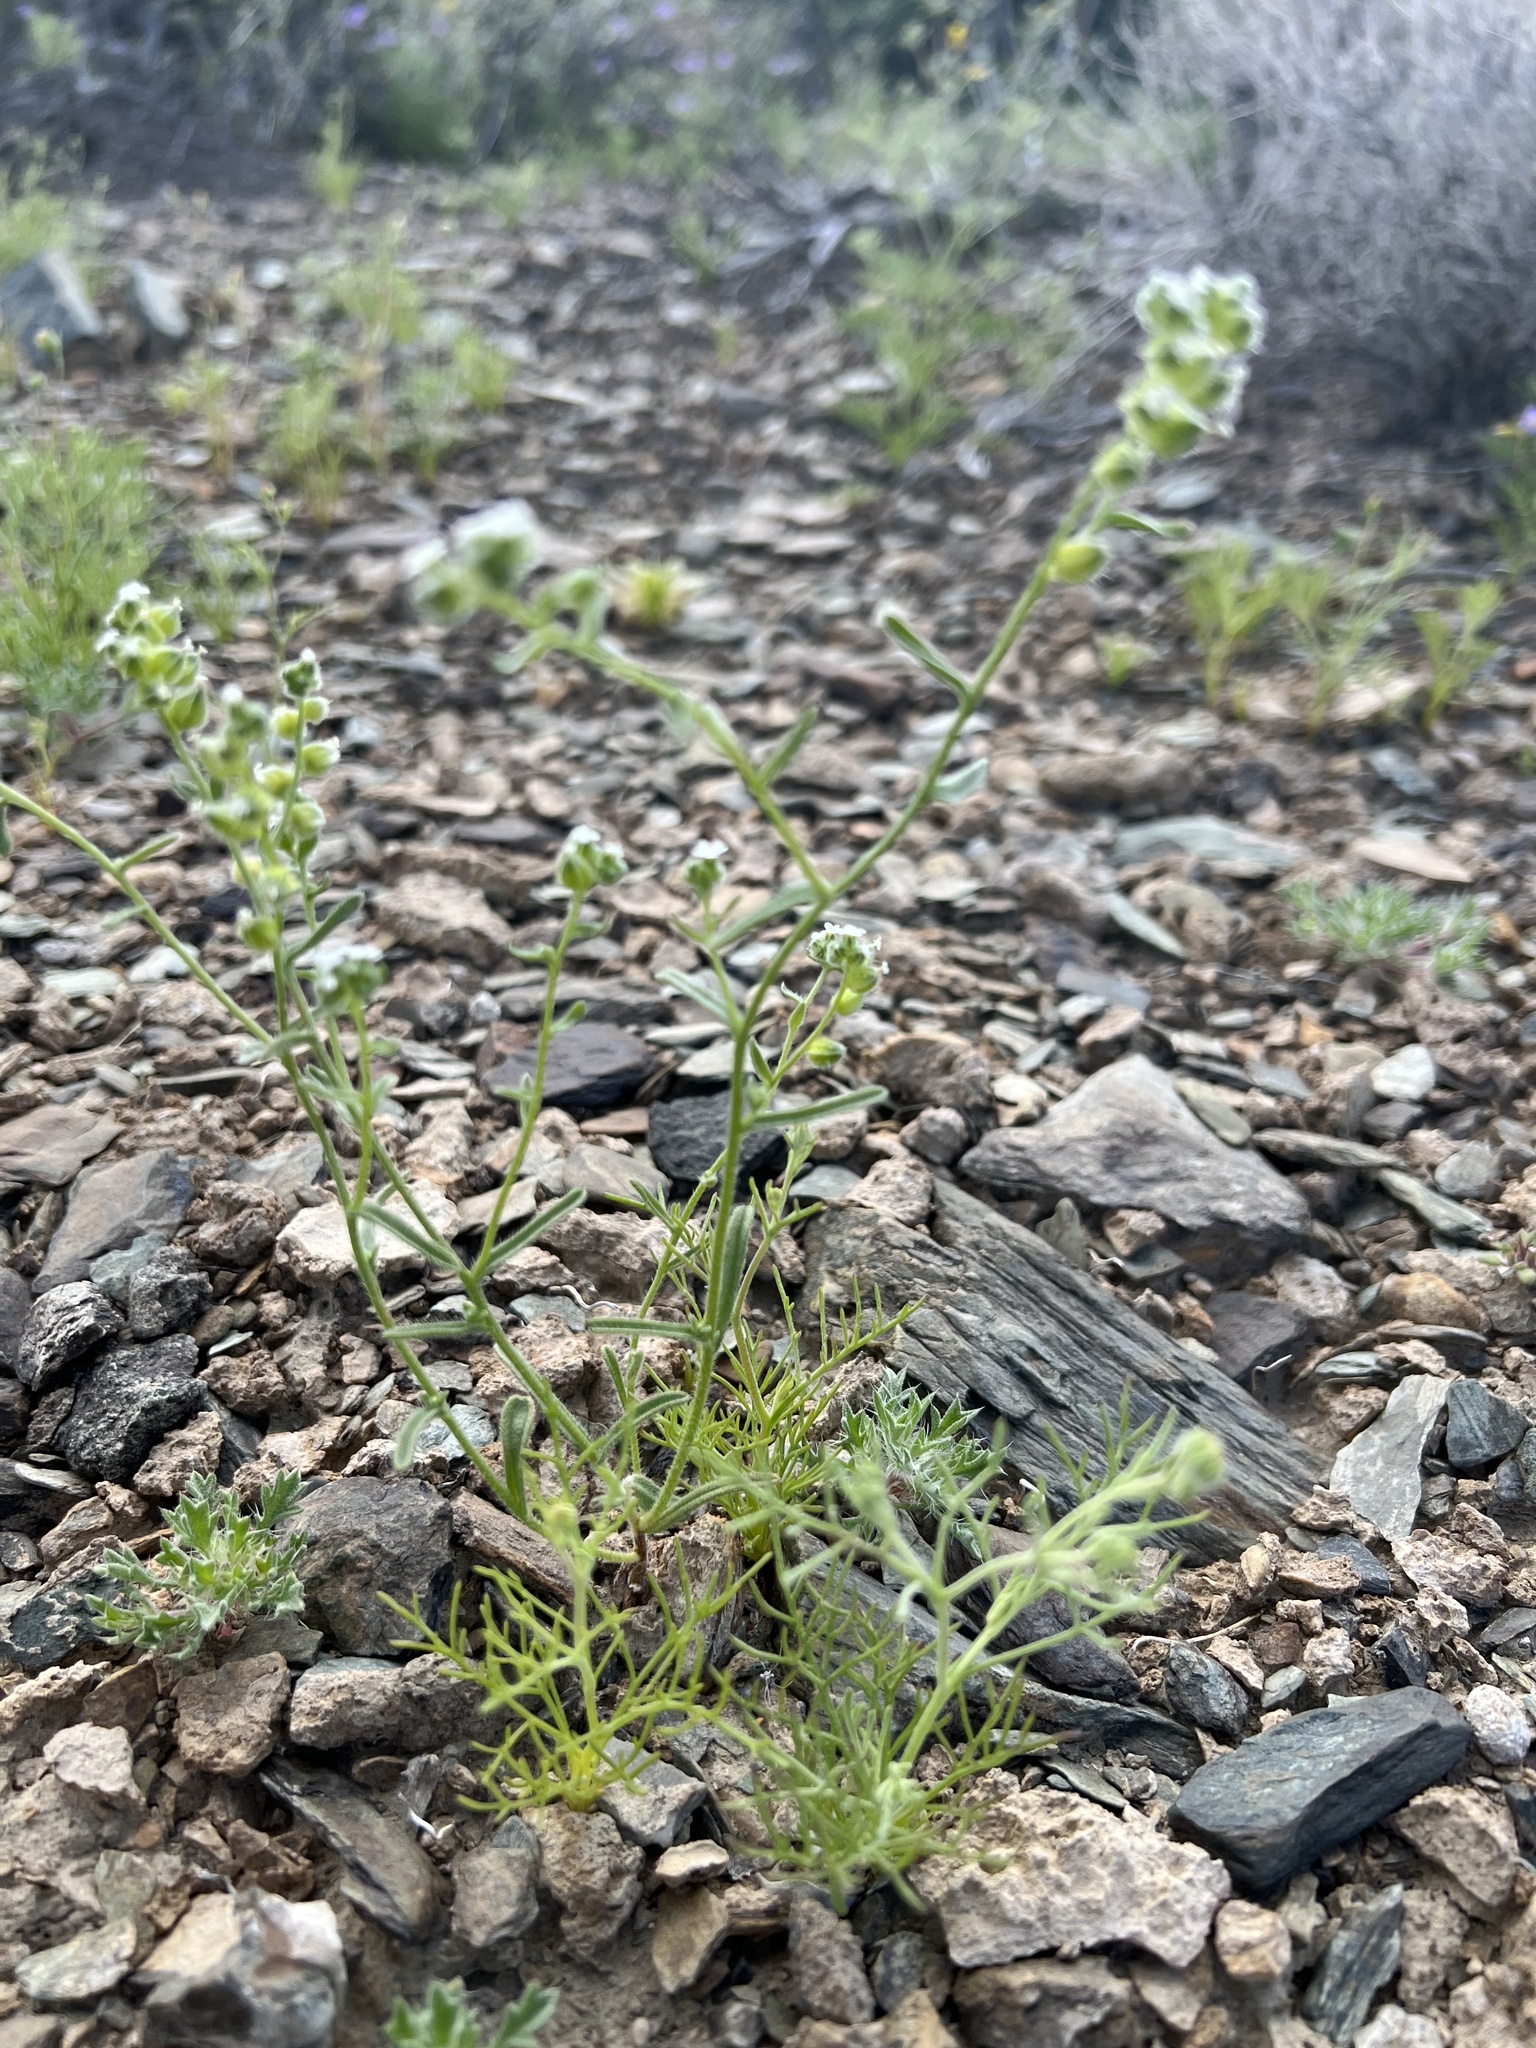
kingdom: Plantae
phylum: Tracheophyta
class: Magnoliopsida
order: Boraginales
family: Boraginaceae
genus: Cryptantha
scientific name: Cryptantha pterocarya
